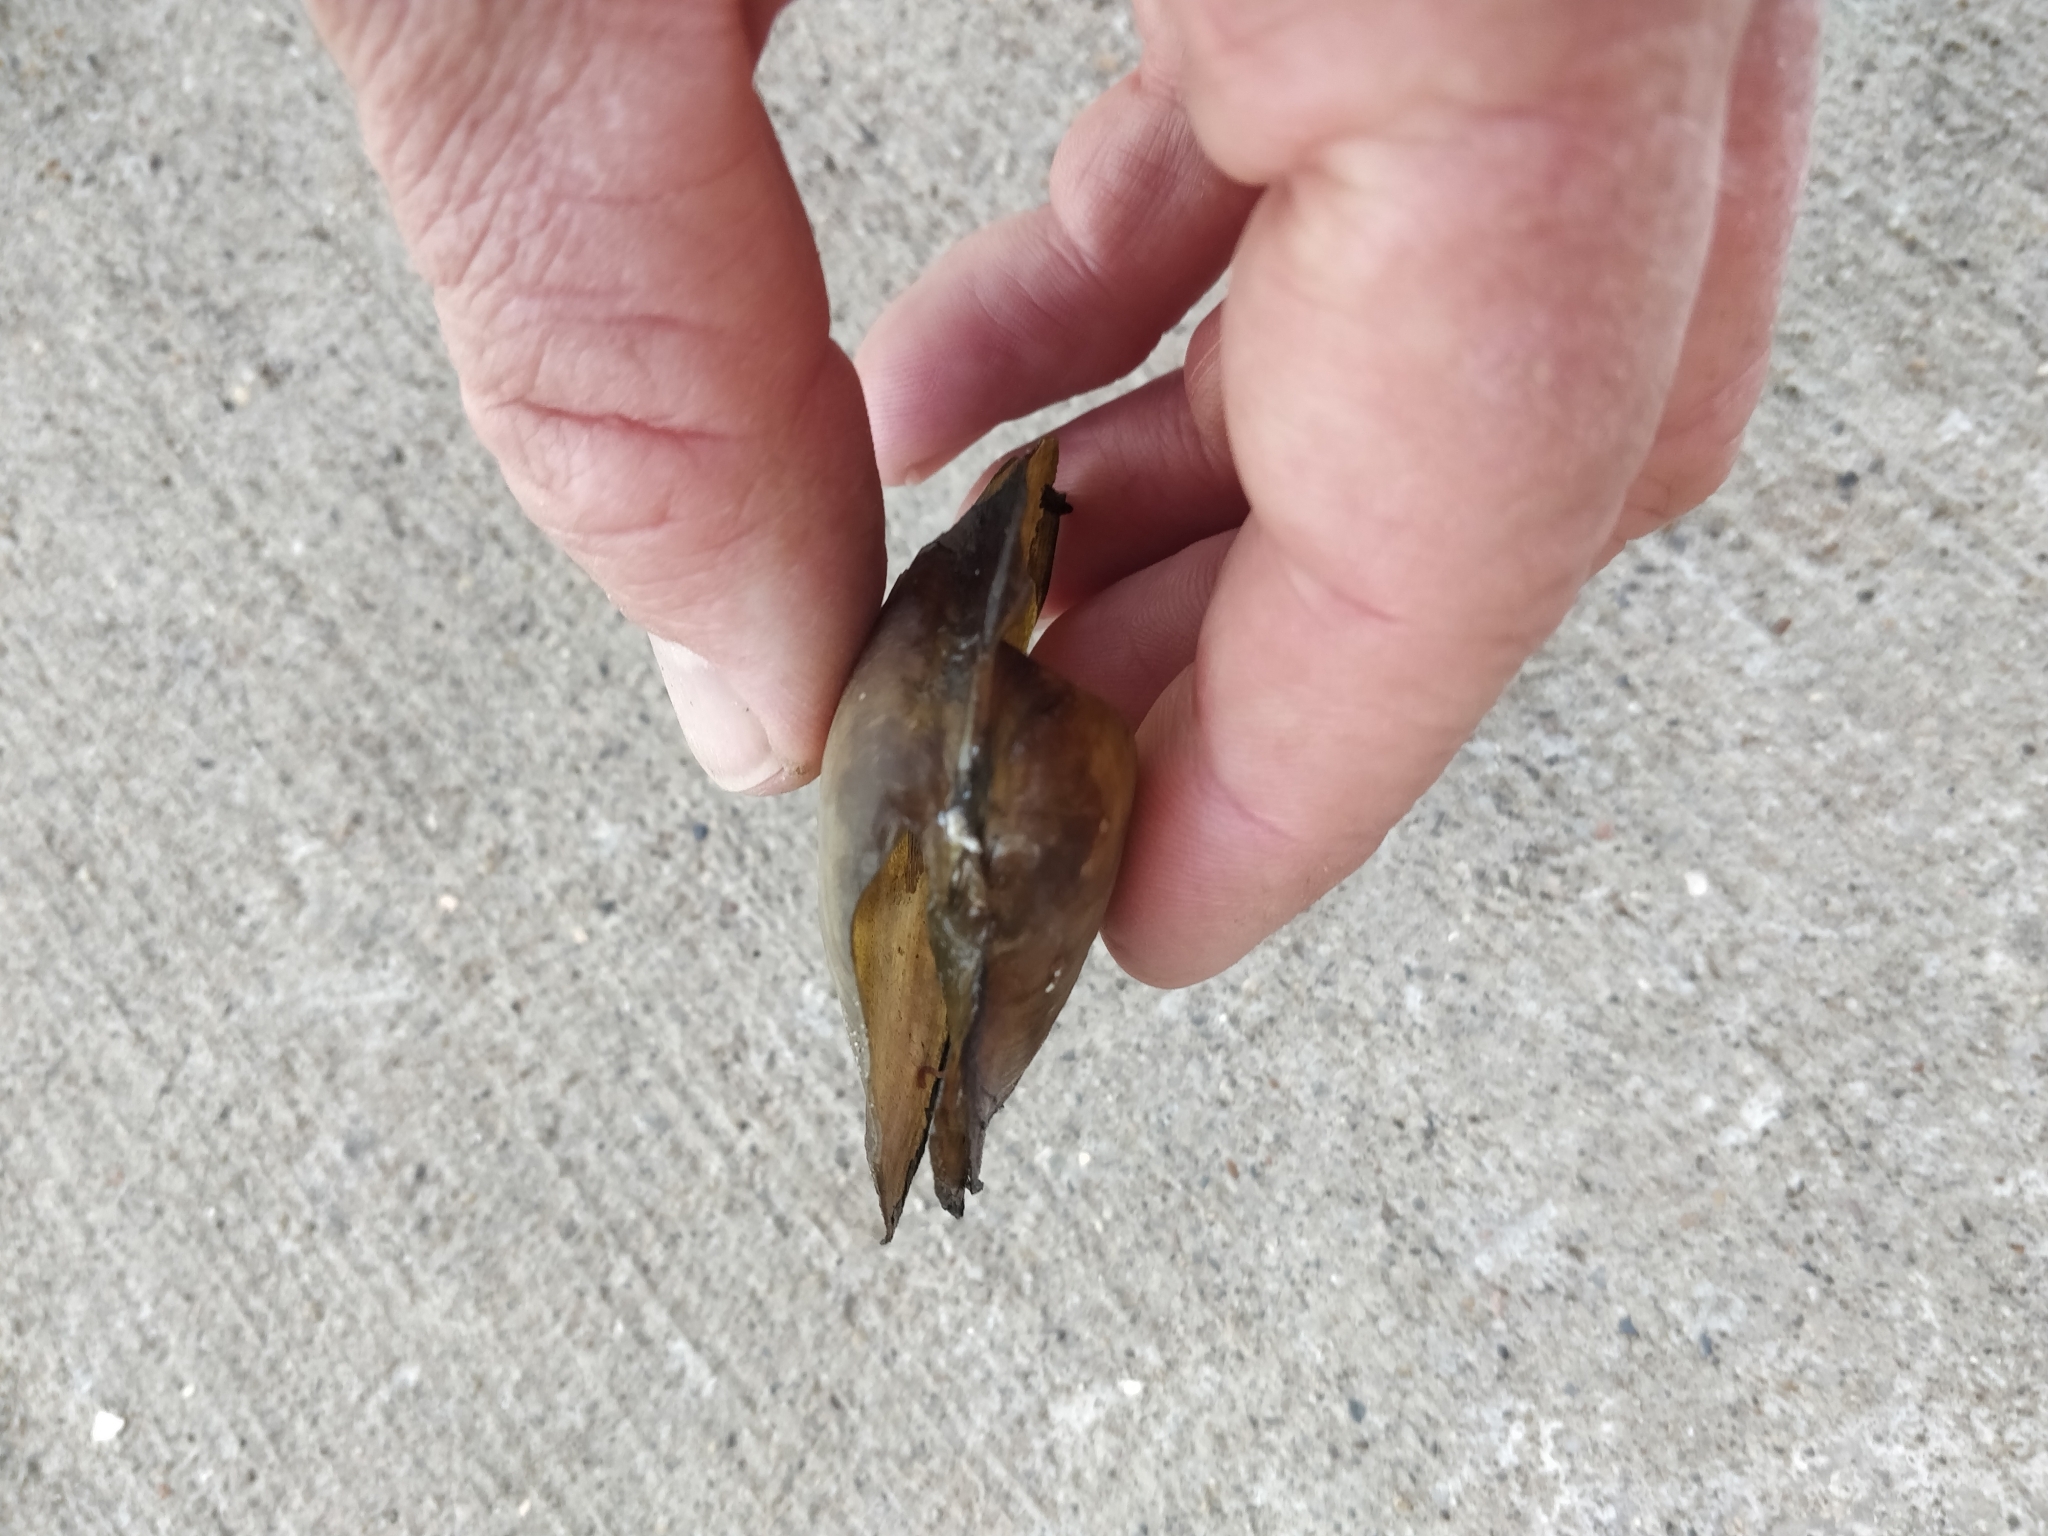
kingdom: Animalia
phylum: Mollusca
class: Bivalvia
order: Unionida
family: Unionidae
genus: Pyganodon
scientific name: Pyganodon grandis
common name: Giant floater
